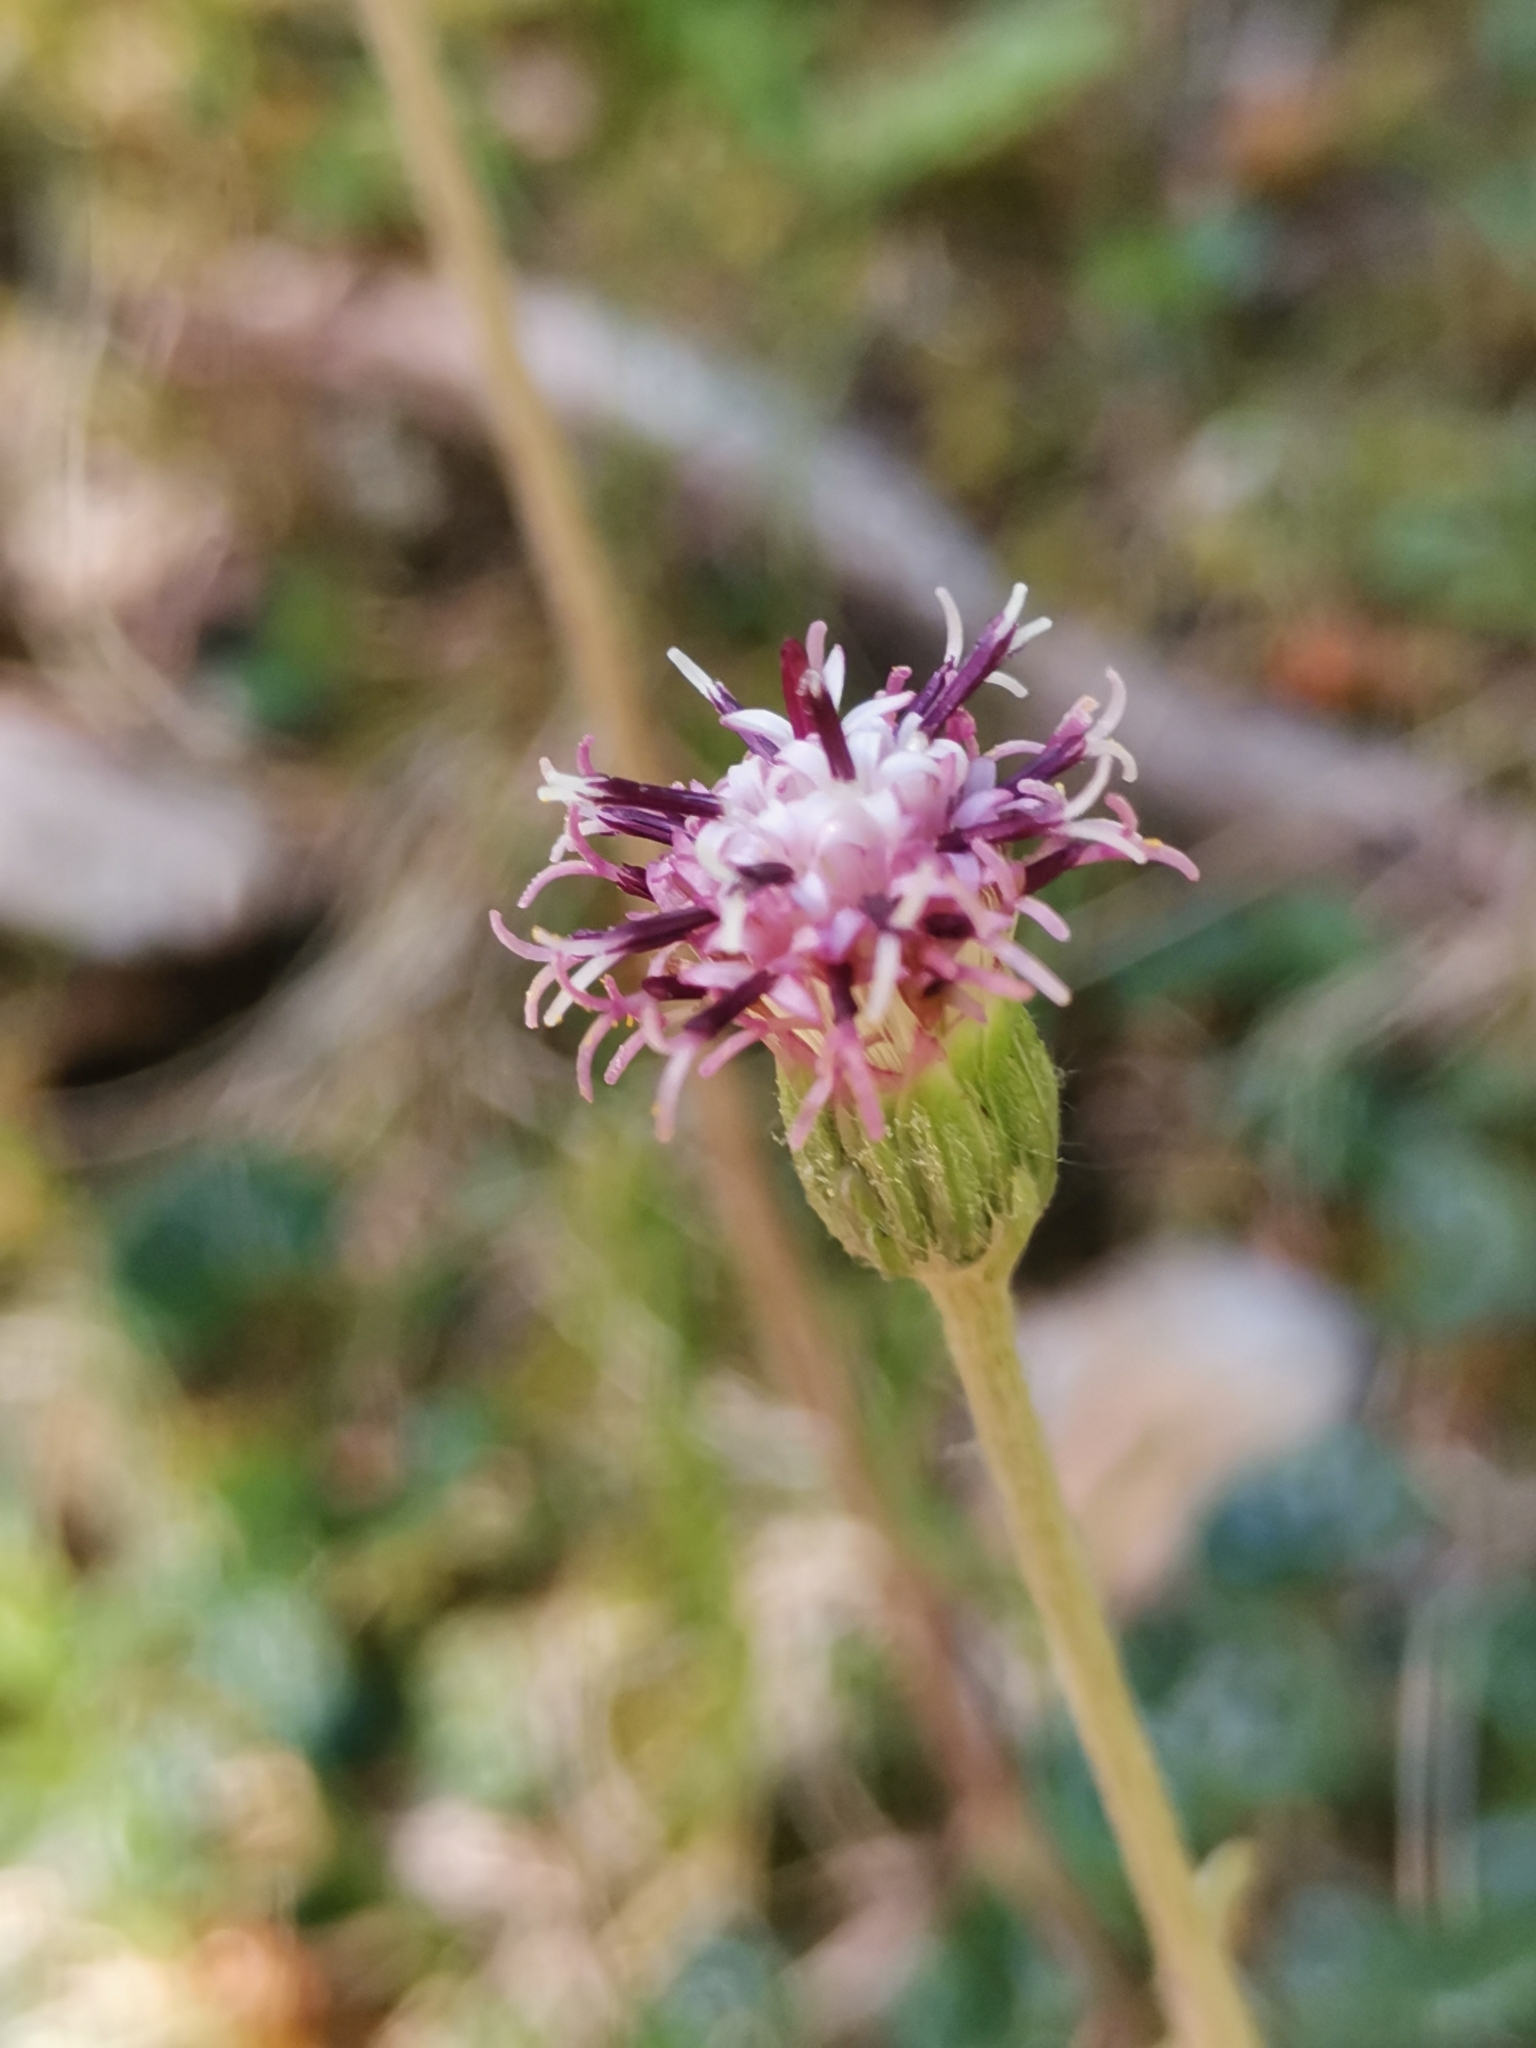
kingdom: Plantae
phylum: Tracheophyta
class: Magnoliopsida
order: Asterales
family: Asteraceae
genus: Homogyne
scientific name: Homogyne discolor
